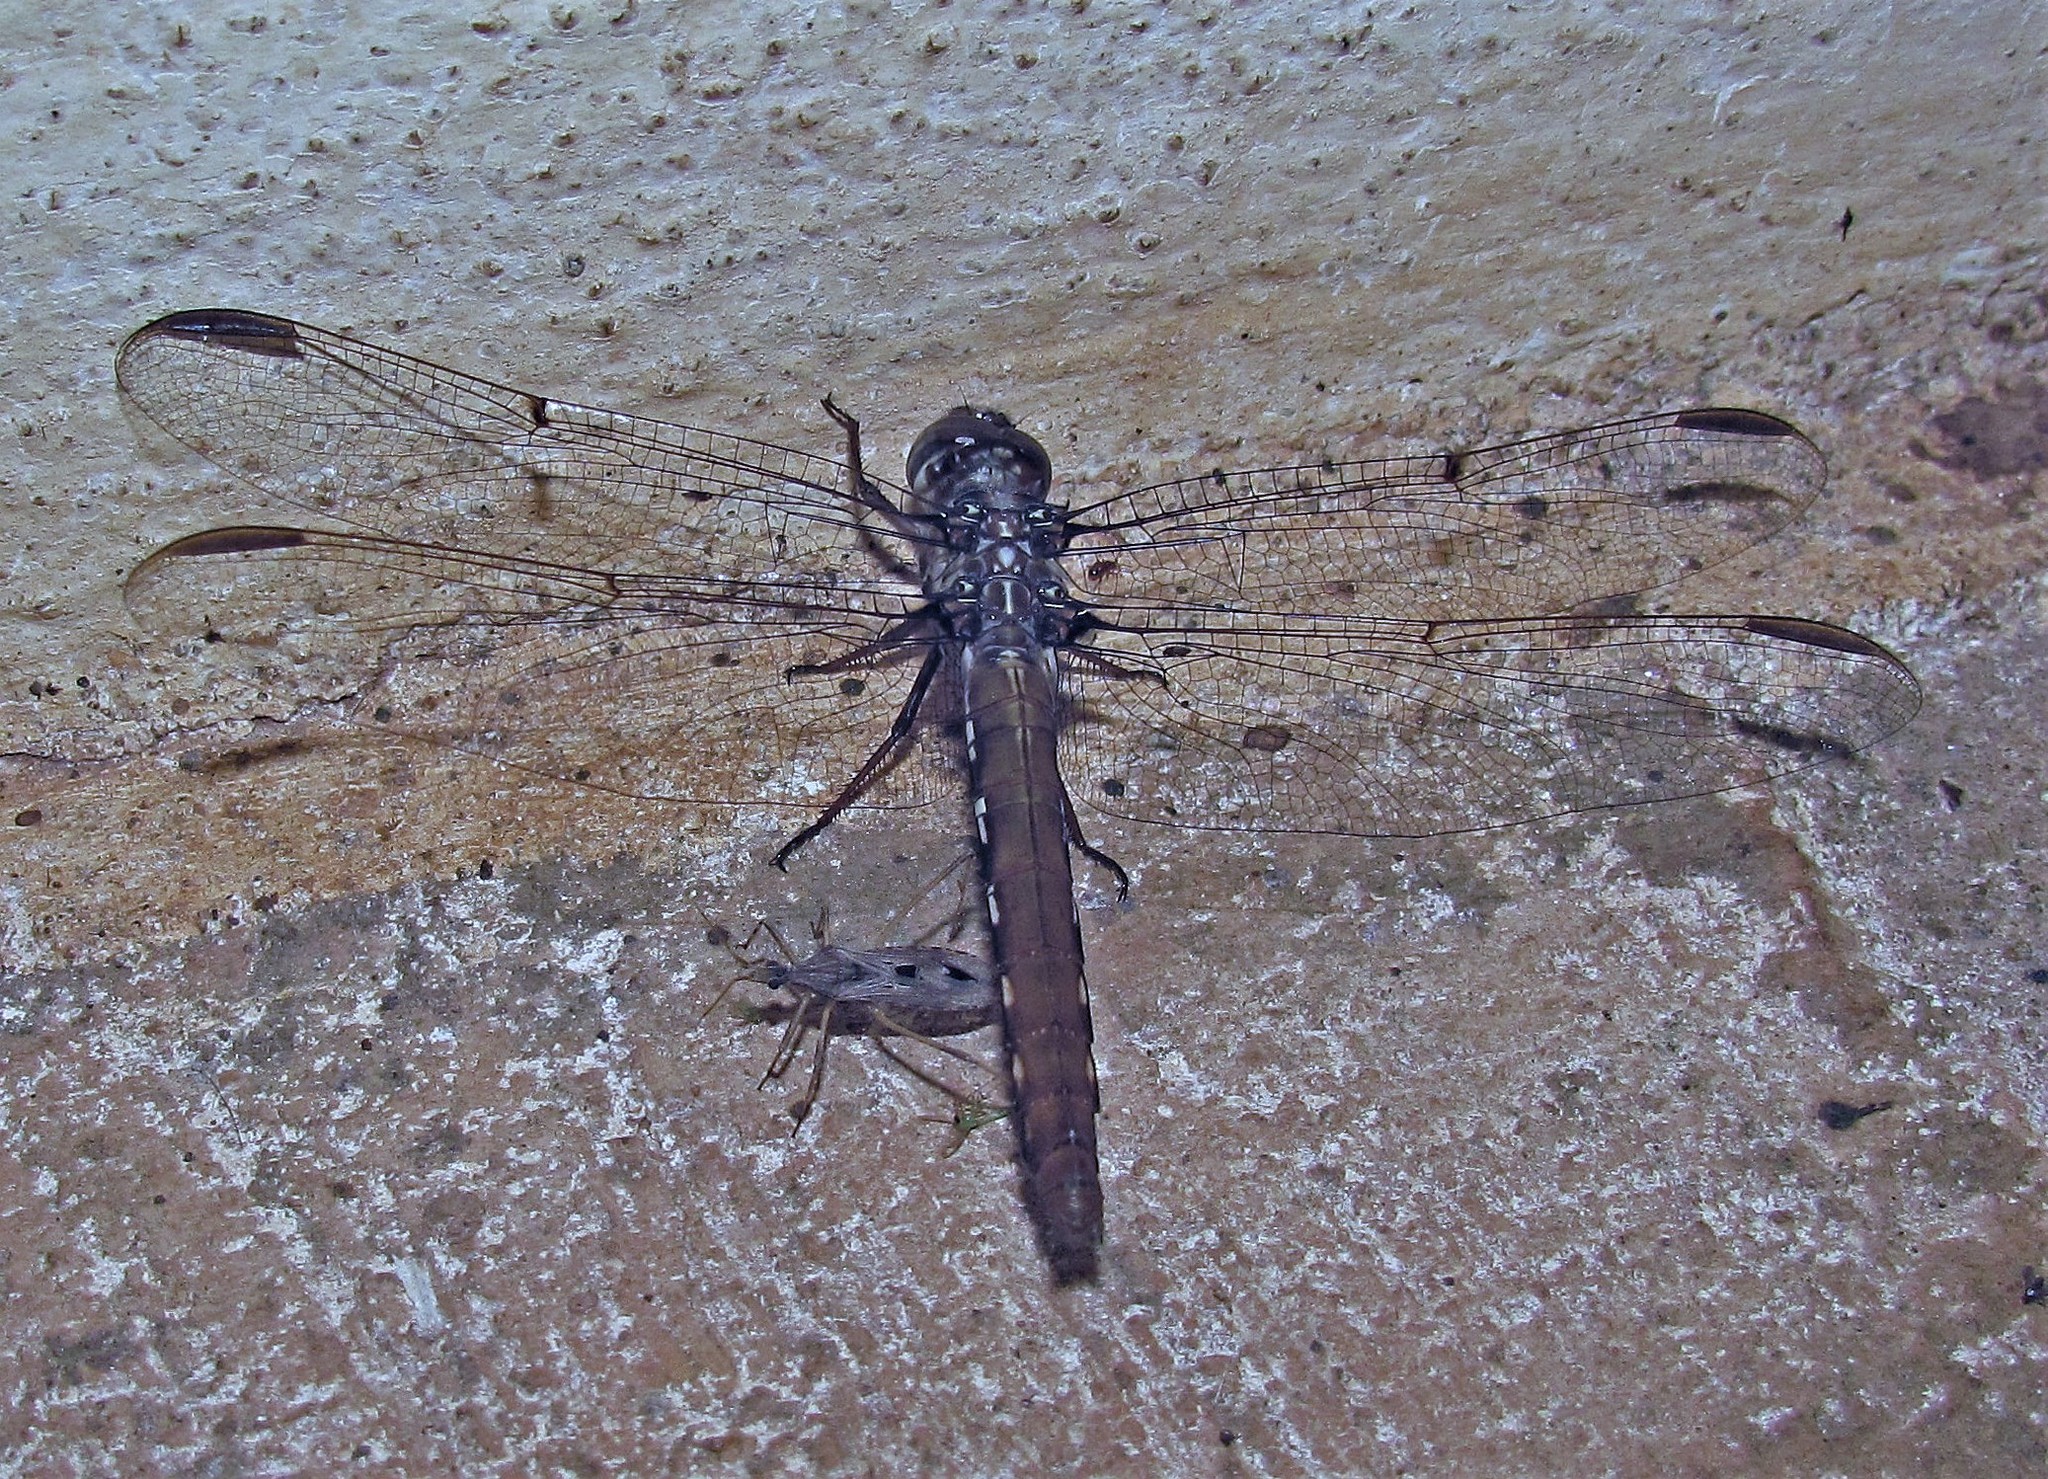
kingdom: Animalia
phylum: Arthropoda
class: Insecta
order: Odonata
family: Libellulidae
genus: Orthemis
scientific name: Orthemis nodiplaga
